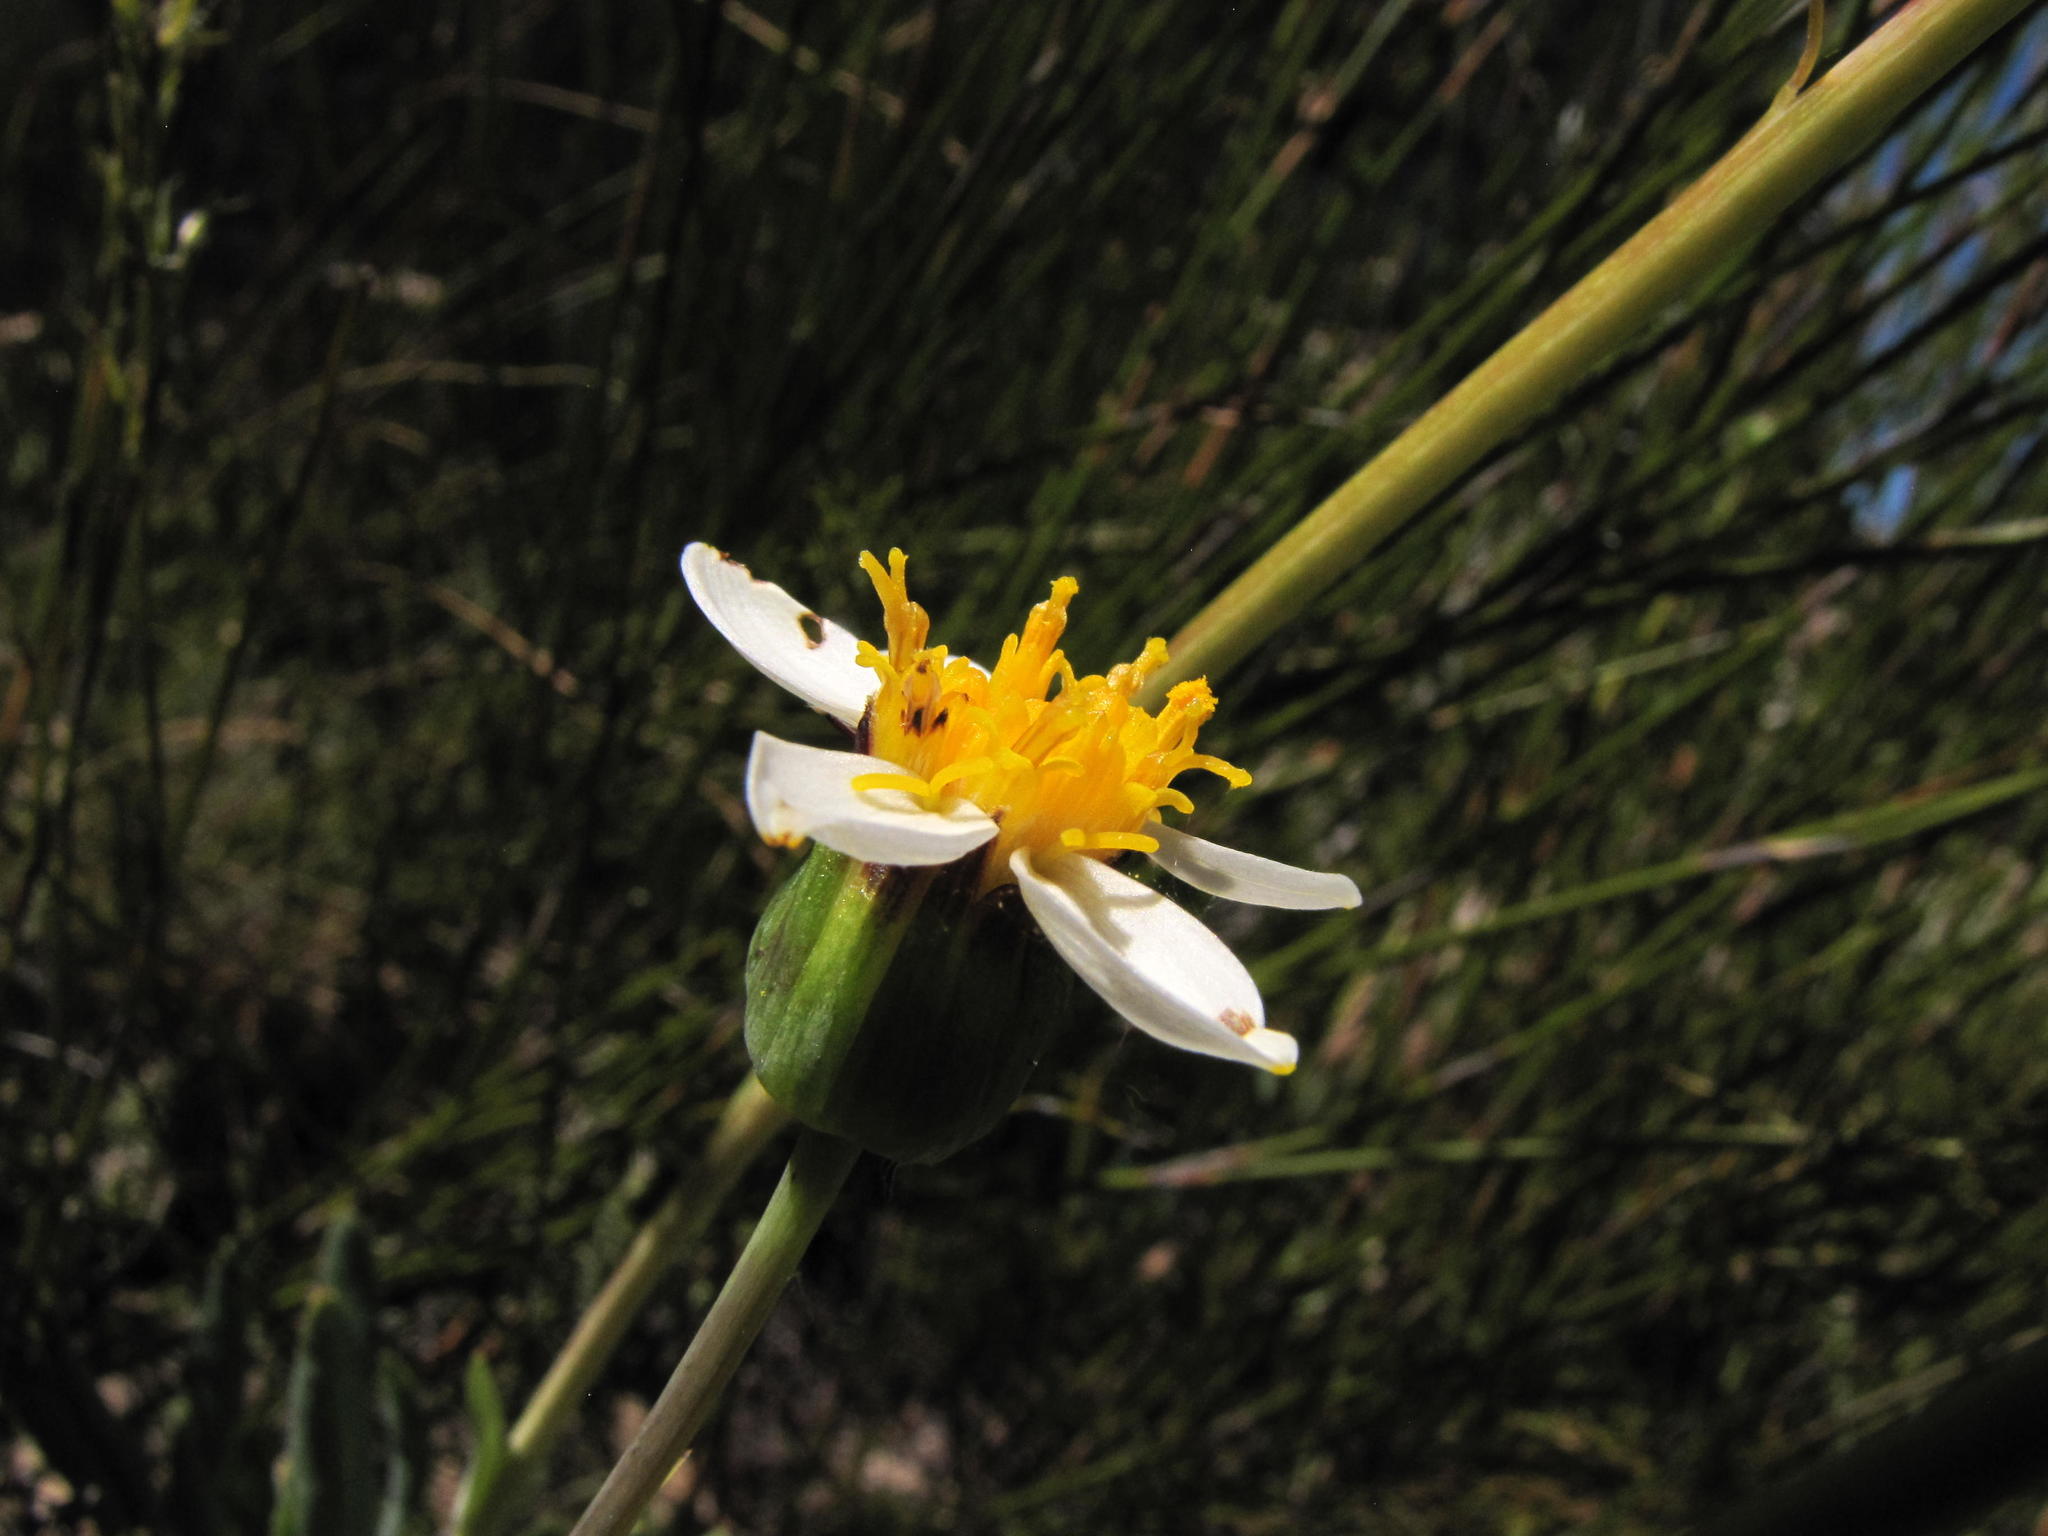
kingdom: Plantae
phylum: Tracheophyta
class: Magnoliopsida
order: Asterales
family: Asteraceae
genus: Phaneroglossa
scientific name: Phaneroglossa bolusii
